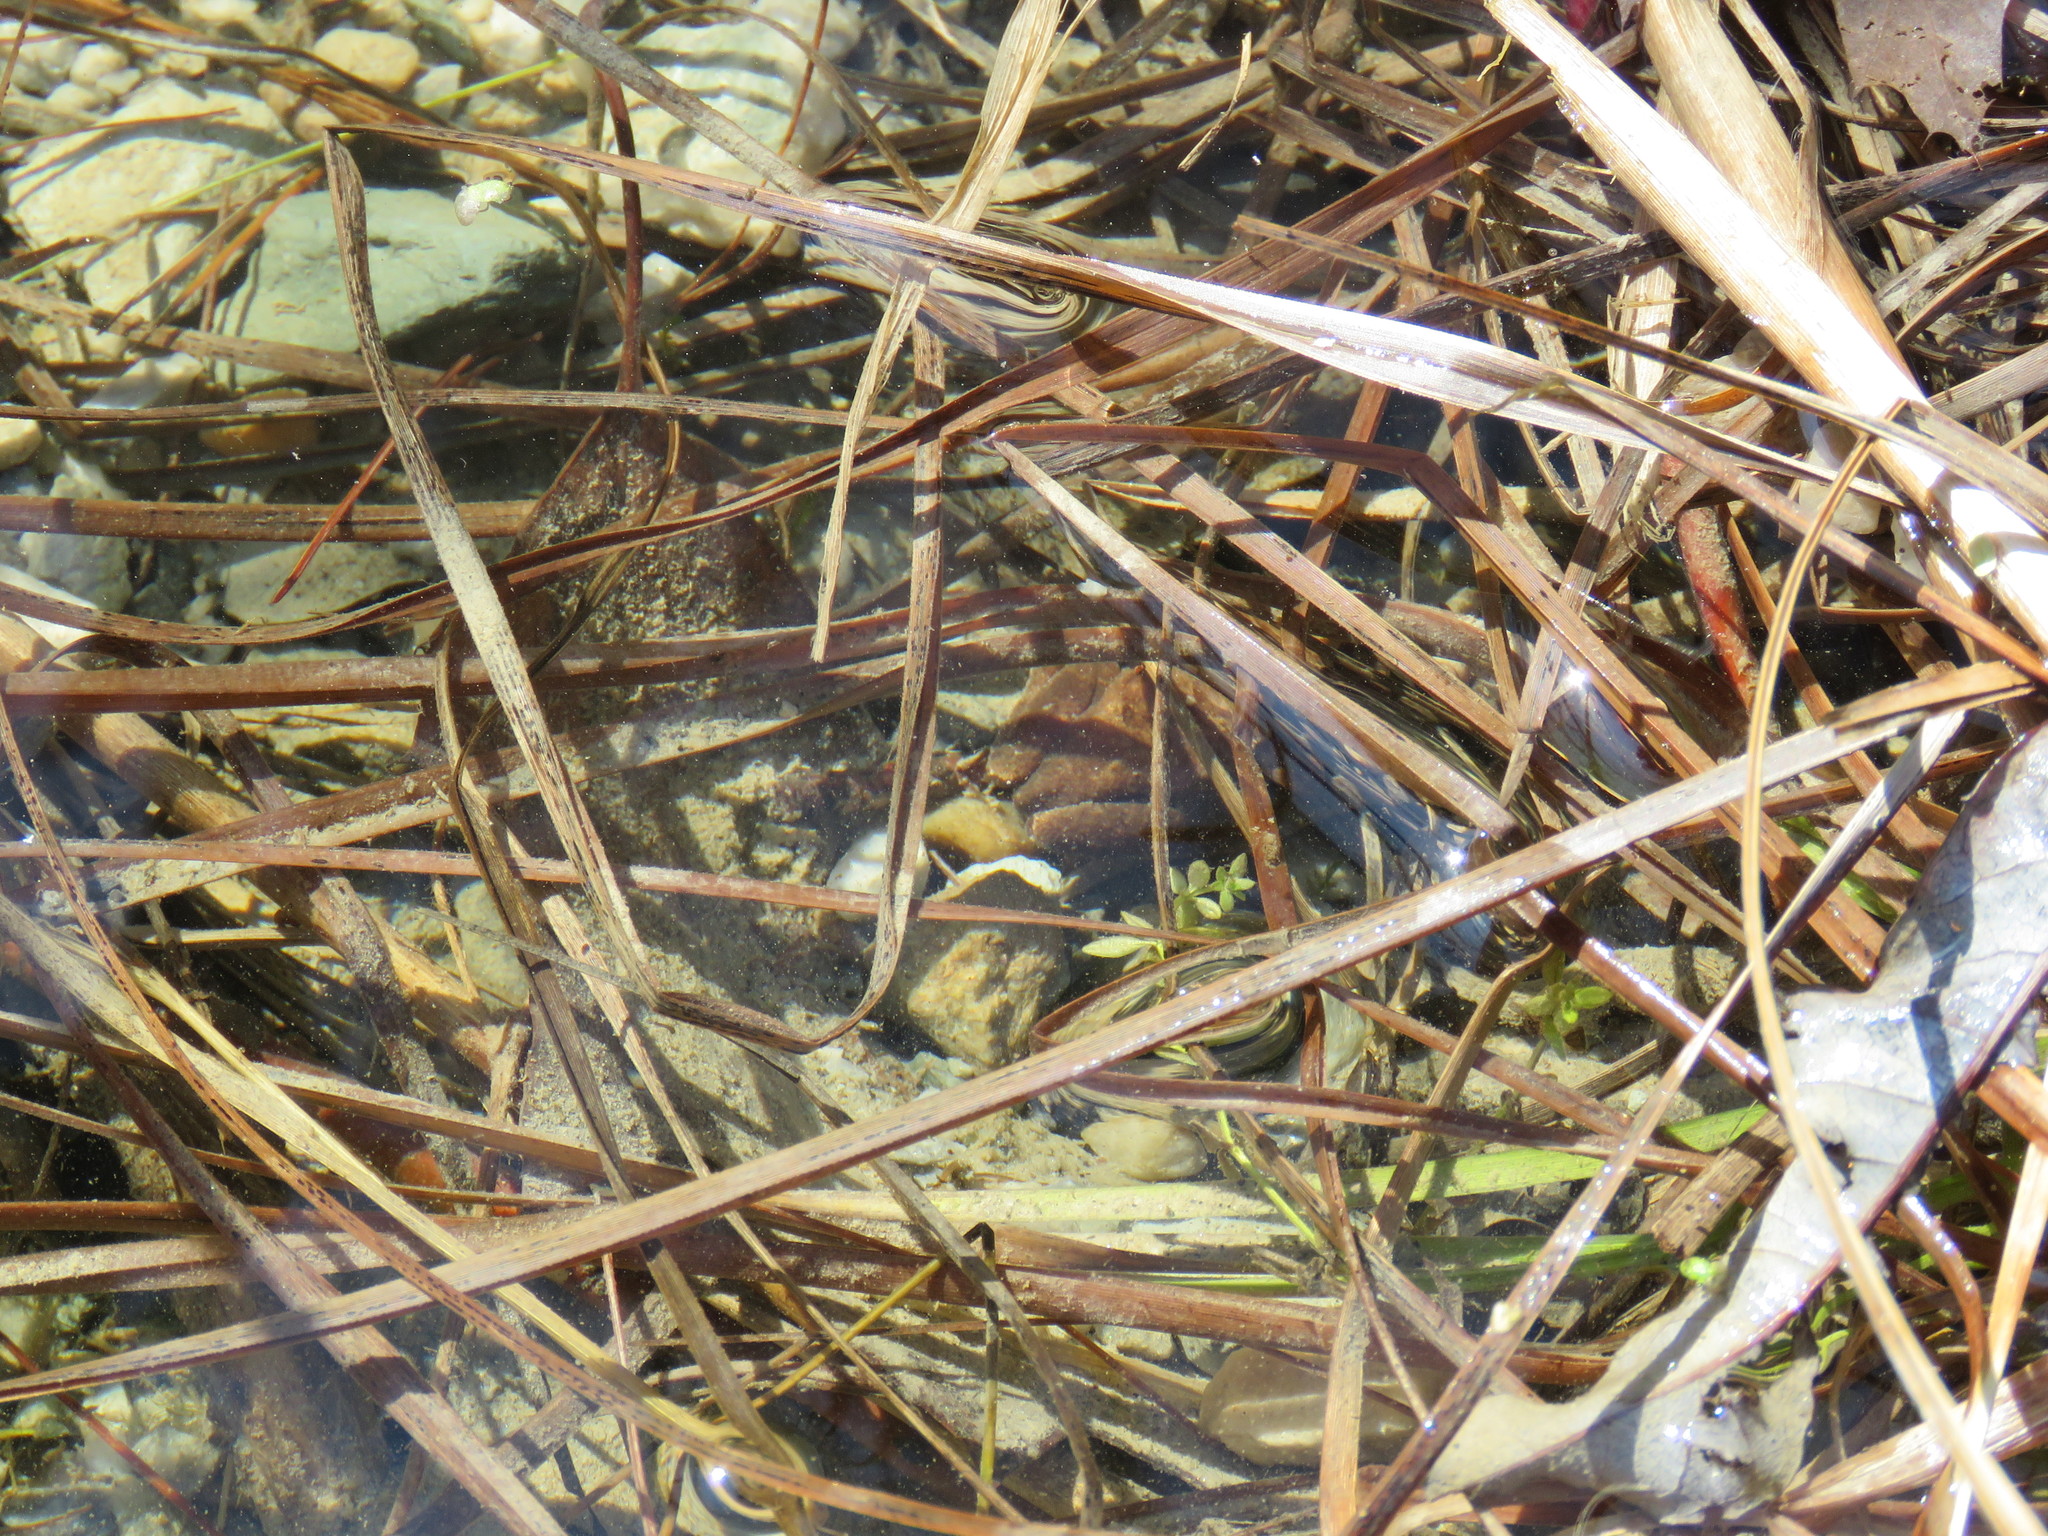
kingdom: Animalia
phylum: Chordata
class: Amphibia
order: Anura
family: Ranidae
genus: Lithobates
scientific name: Lithobates sylvaticus
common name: Wood frog
